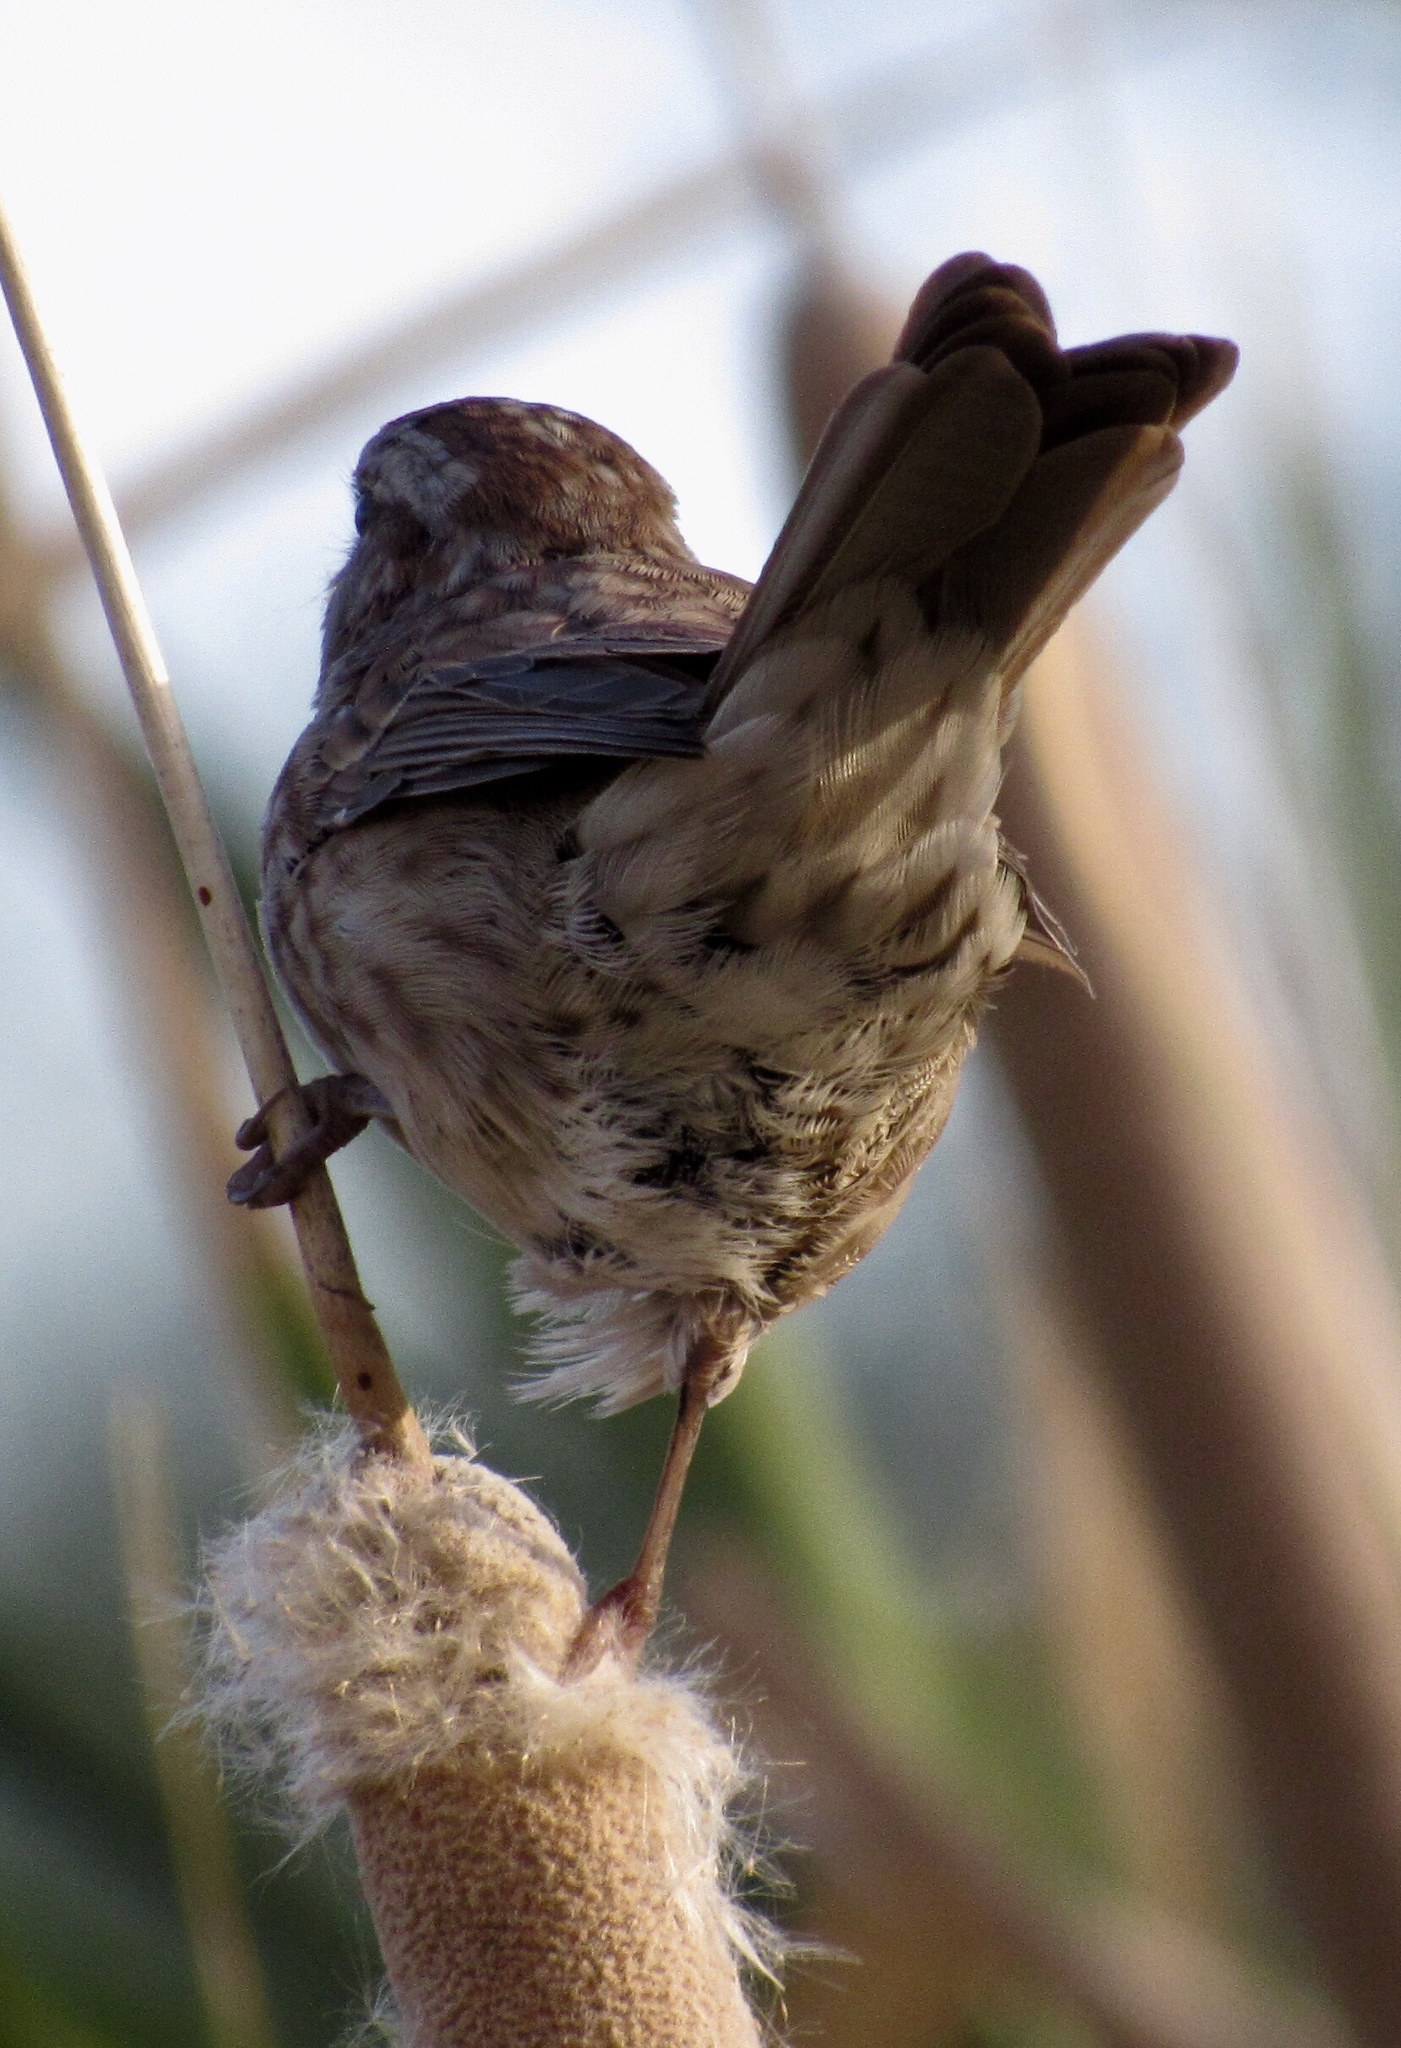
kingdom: Animalia
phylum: Chordata
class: Aves
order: Passeriformes
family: Passerellidae
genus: Melospiza
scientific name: Melospiza melodia
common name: Song sparrow
